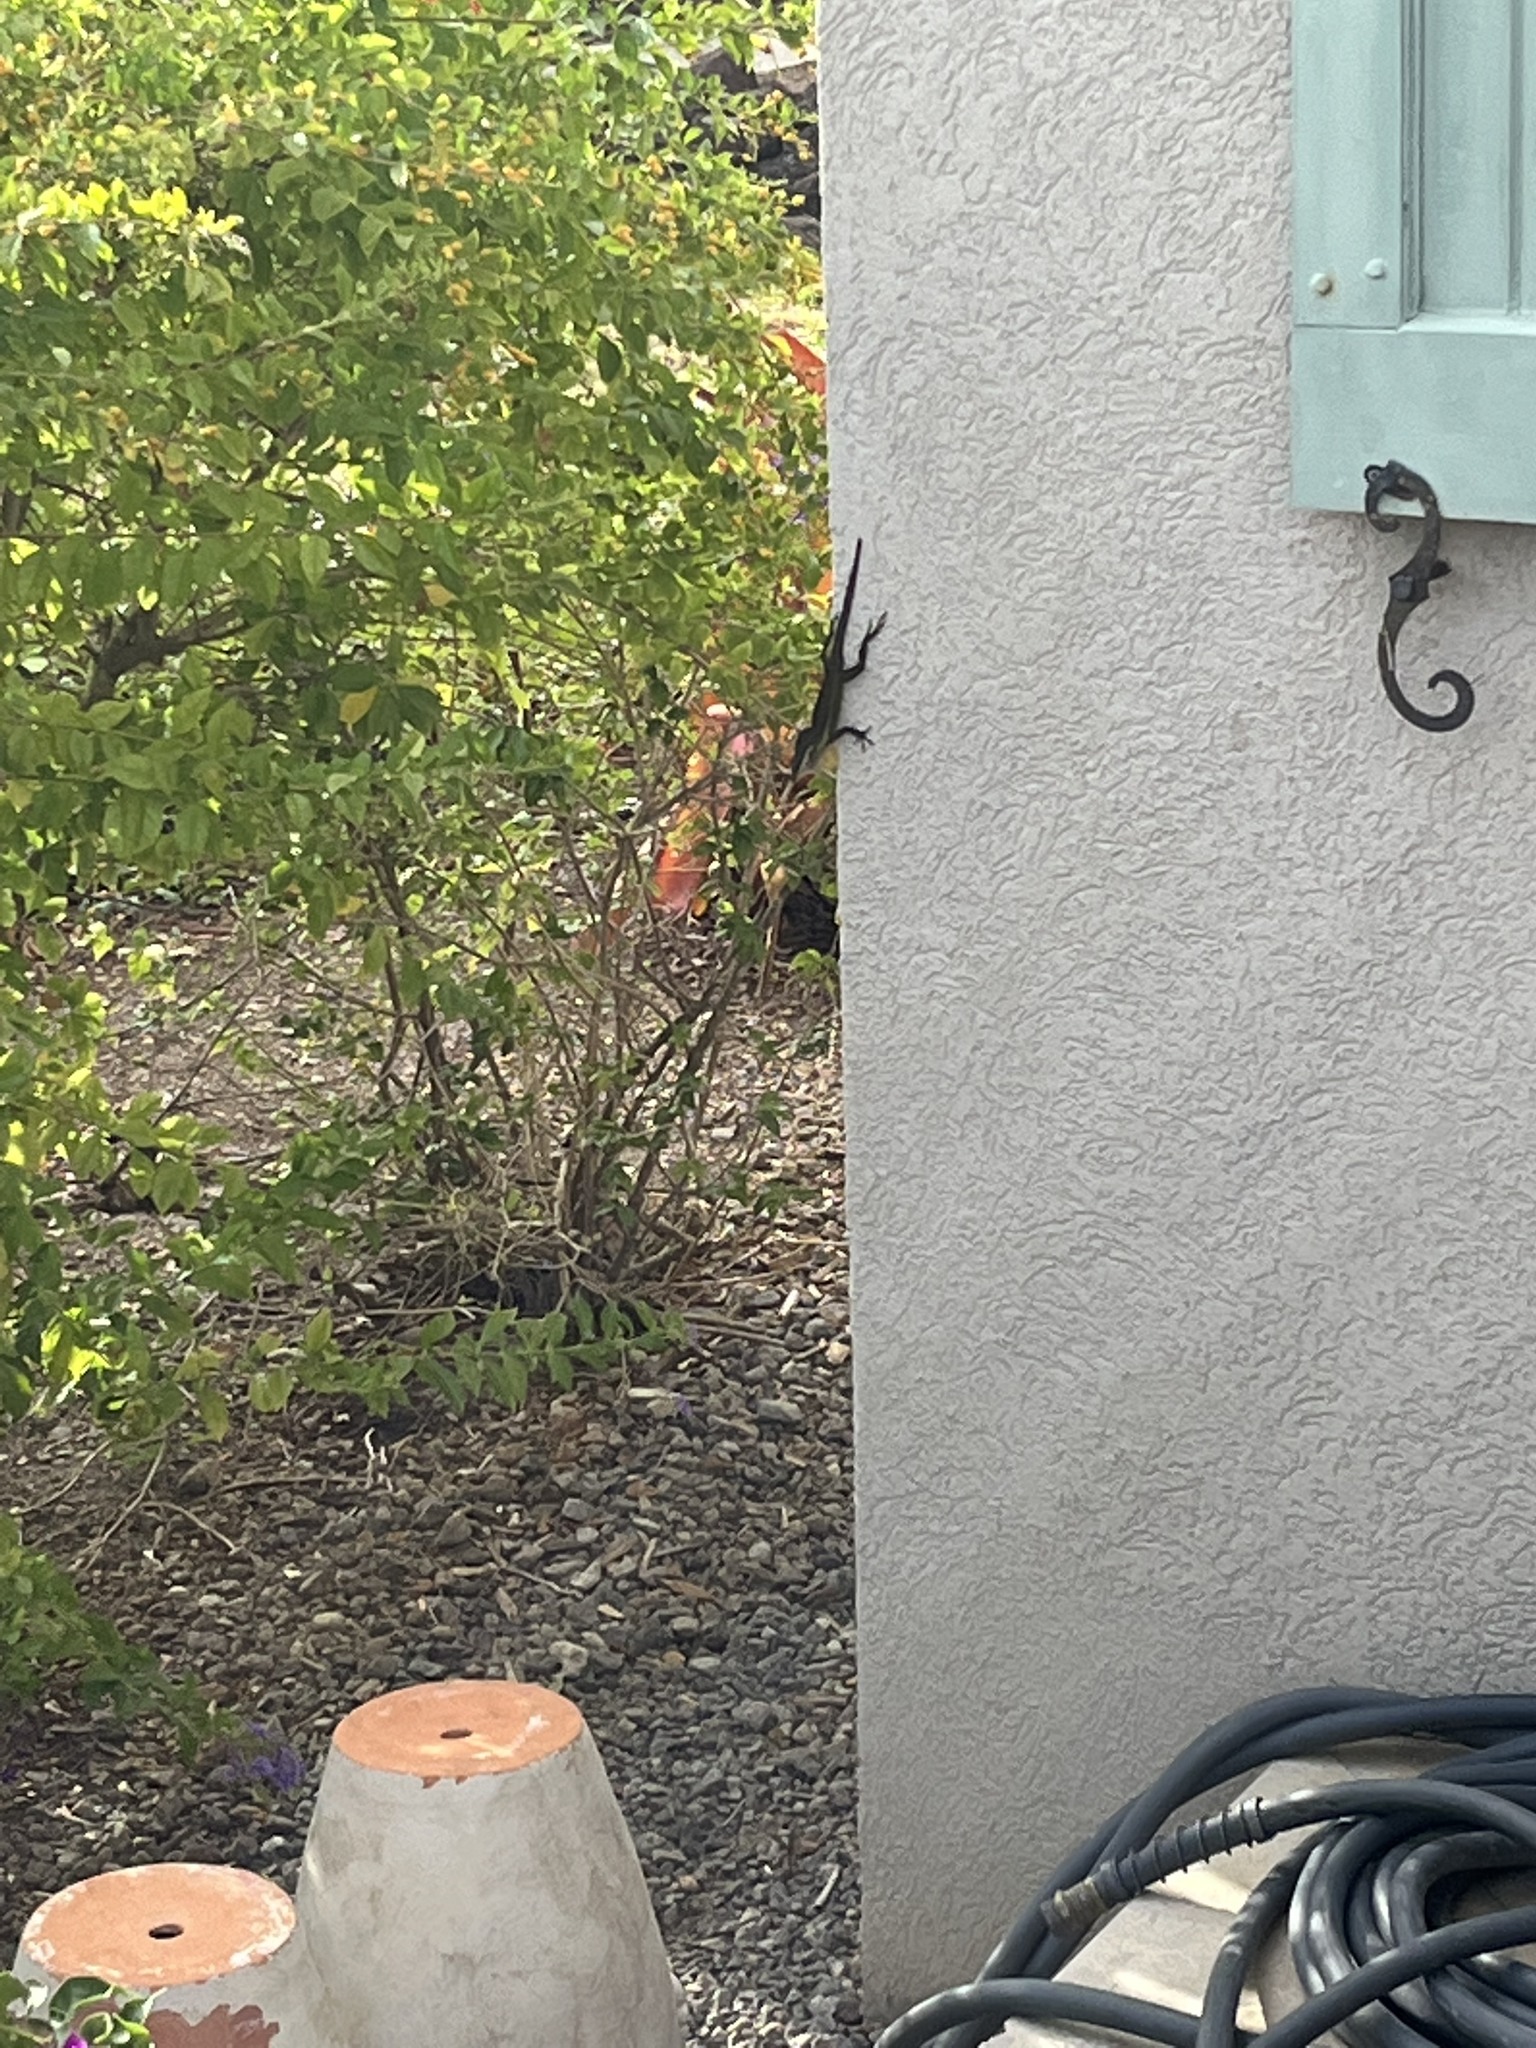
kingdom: Animalia
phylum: Chordata
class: Squamata
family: Dactyloidae
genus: Anolis
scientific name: Anolis bimaculatus
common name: Panther anole
